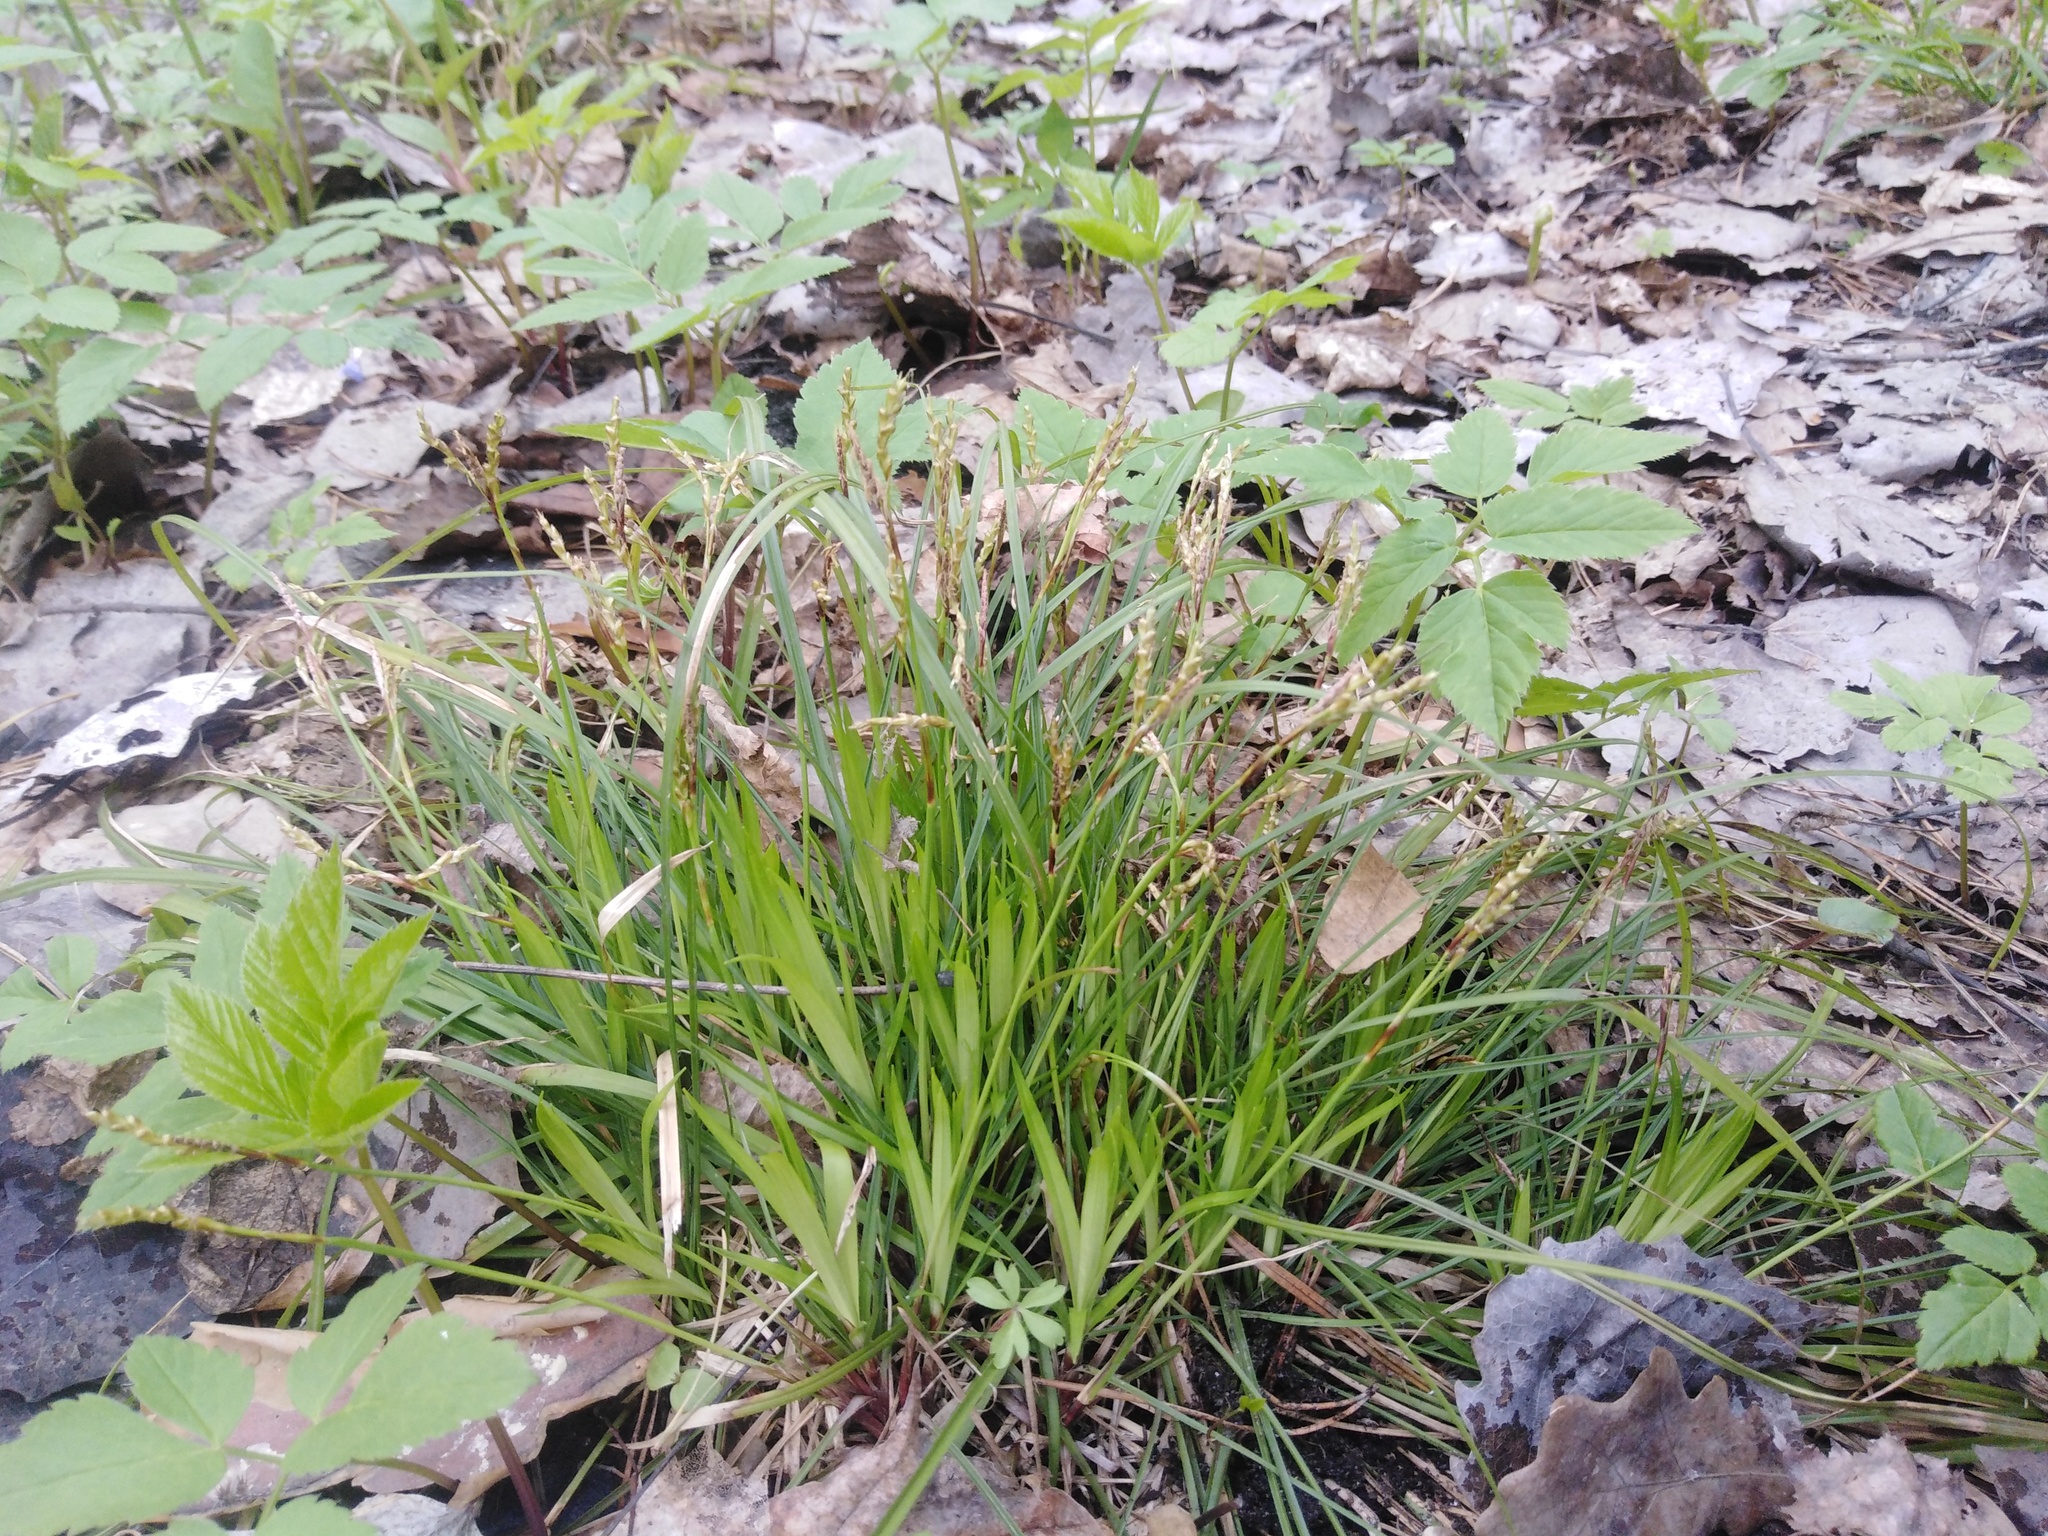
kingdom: Plantae
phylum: Tracheophyta
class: Liliopsida
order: Poales
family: Cyperaceae
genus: Carex
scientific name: Carex digitata
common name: Fingered sedge
